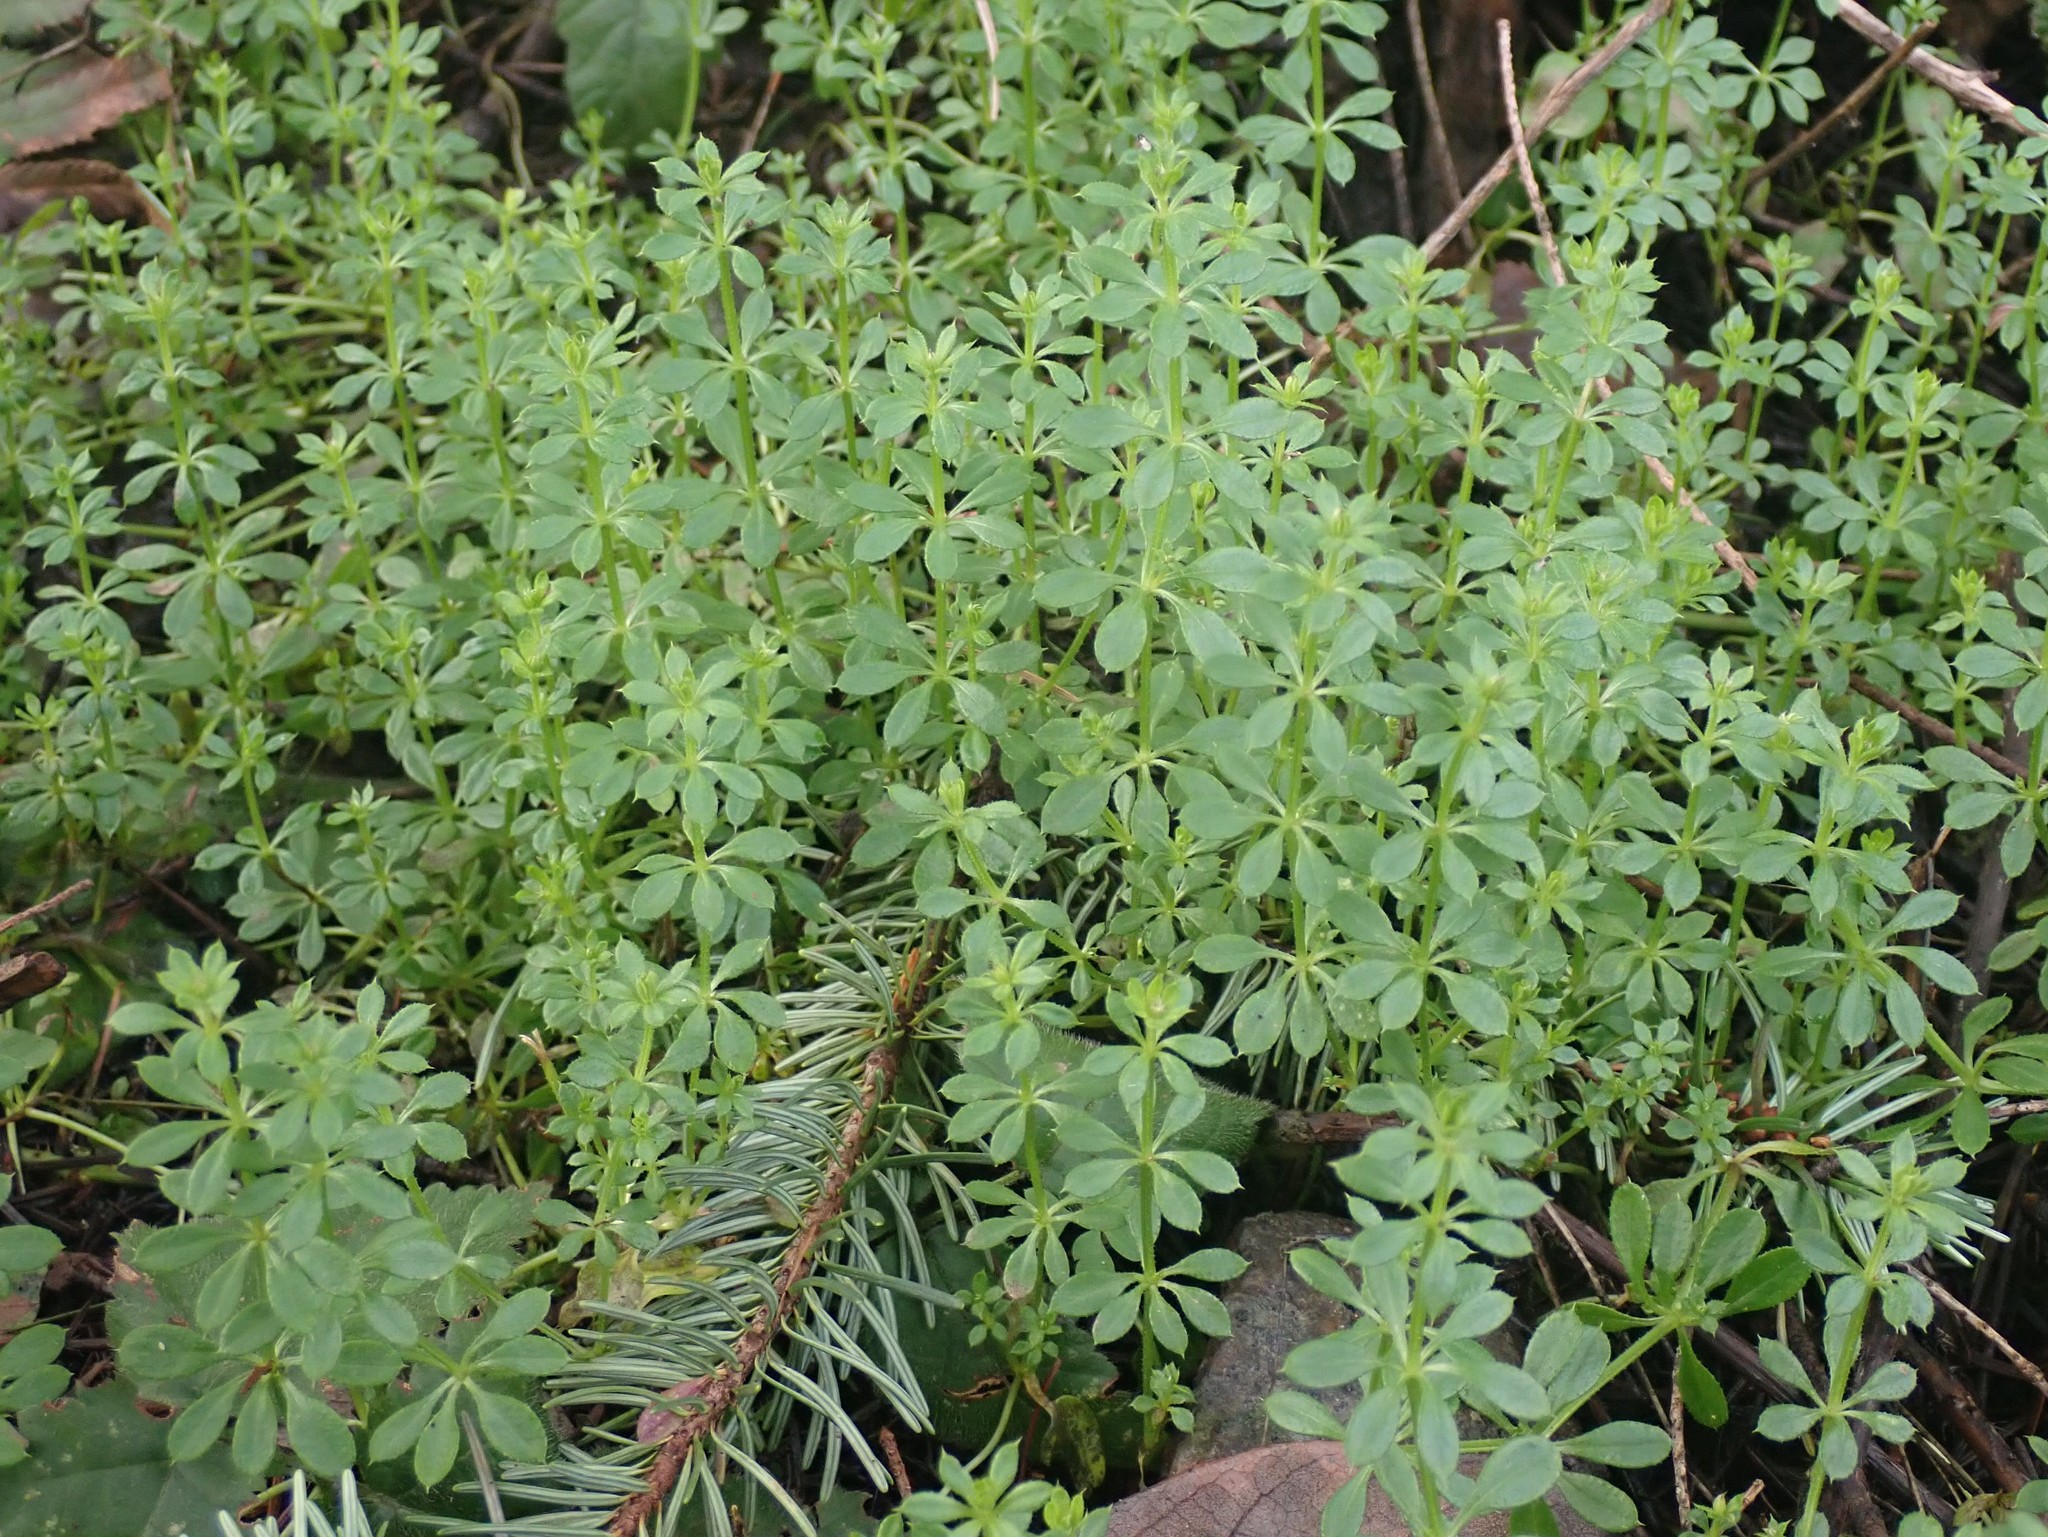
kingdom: Plantae
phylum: Tracheophyta
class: Magnoliopsida
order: Gentianales
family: Rubiaceae
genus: Galium
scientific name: Galium aparine
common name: Cleavers
